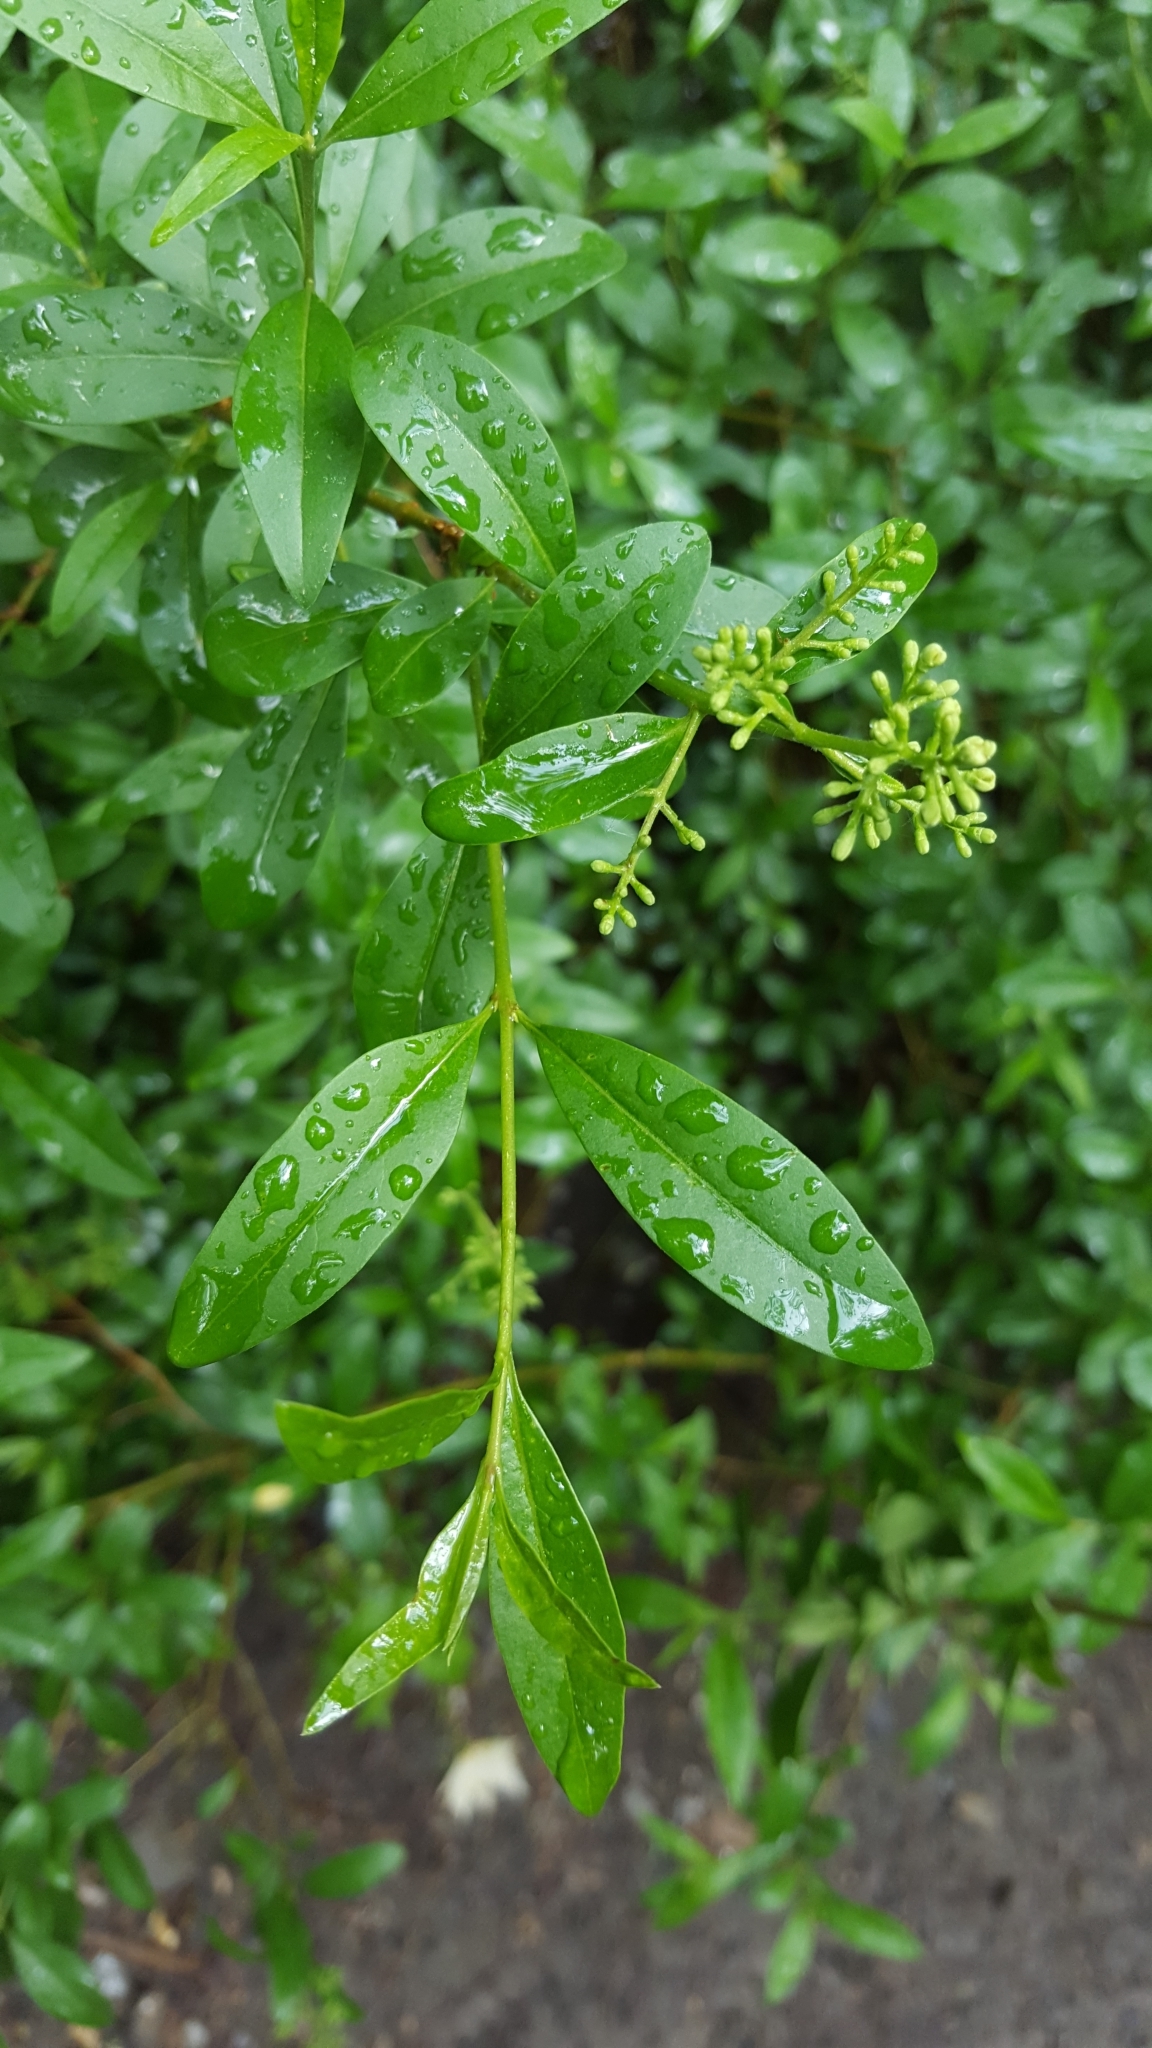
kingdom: Plantae
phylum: Tracheophyta
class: Magnoliopsida
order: Lamiales
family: Oleaceae
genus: Ligustrum
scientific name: Ligustrum vulgare
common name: Wild privet
